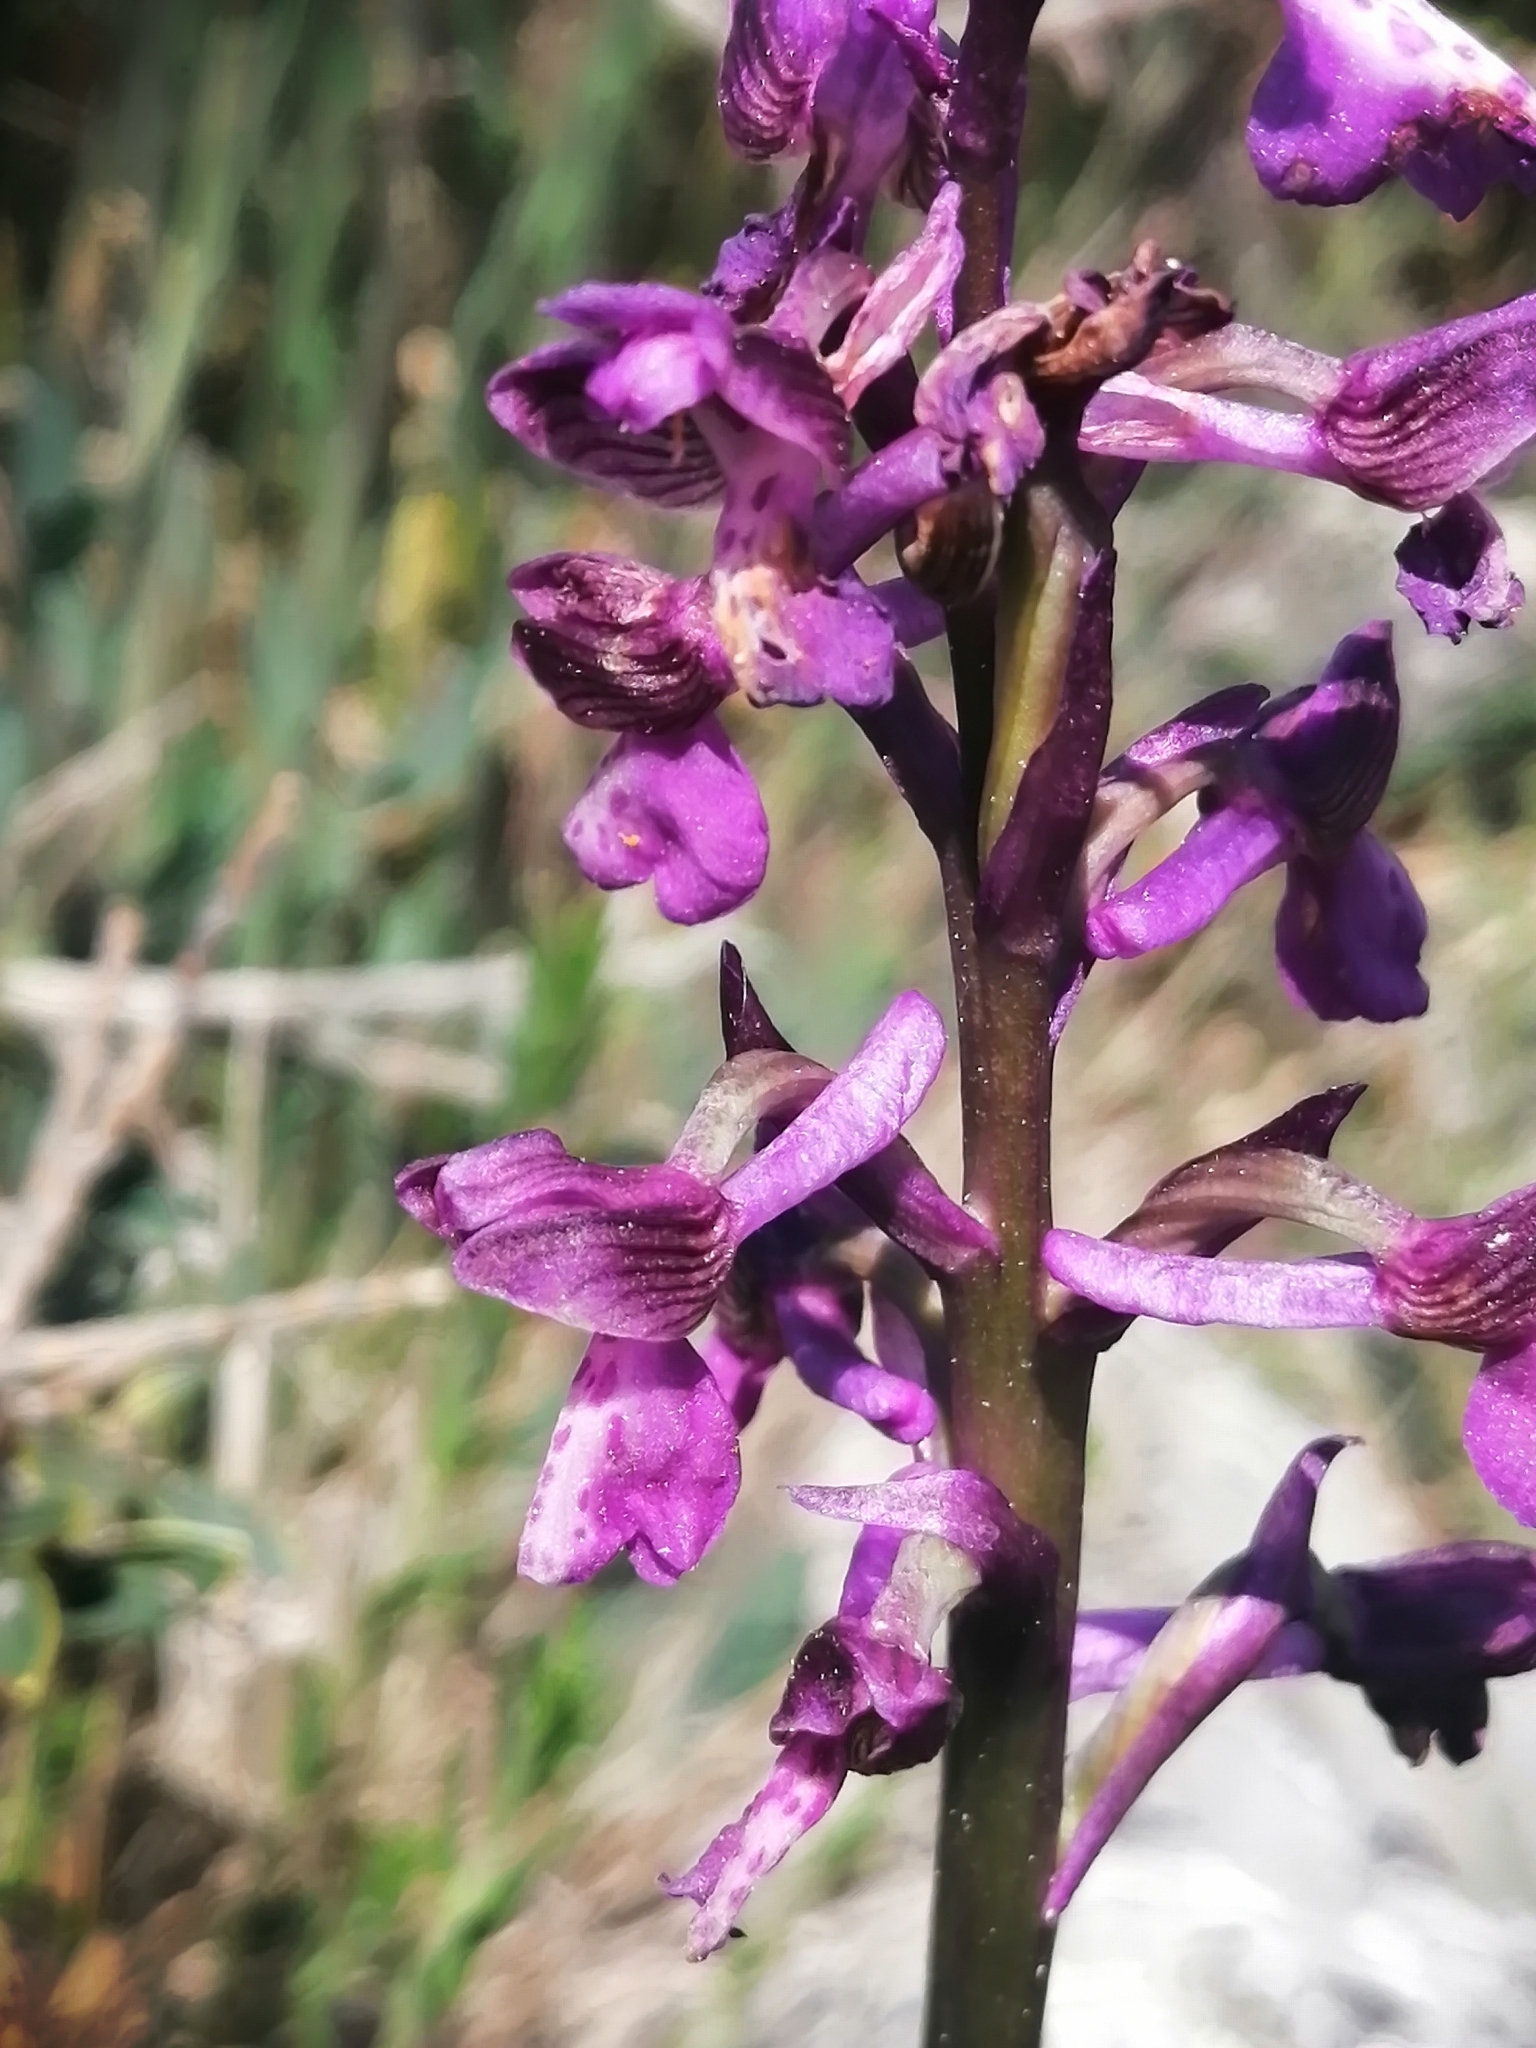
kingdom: Plantae
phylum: Tracheophyta
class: Liliopsida
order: Asparagales
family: Orchidaceae
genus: Anacamptis
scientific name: Anacamptis morio
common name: Green-winged orchid
